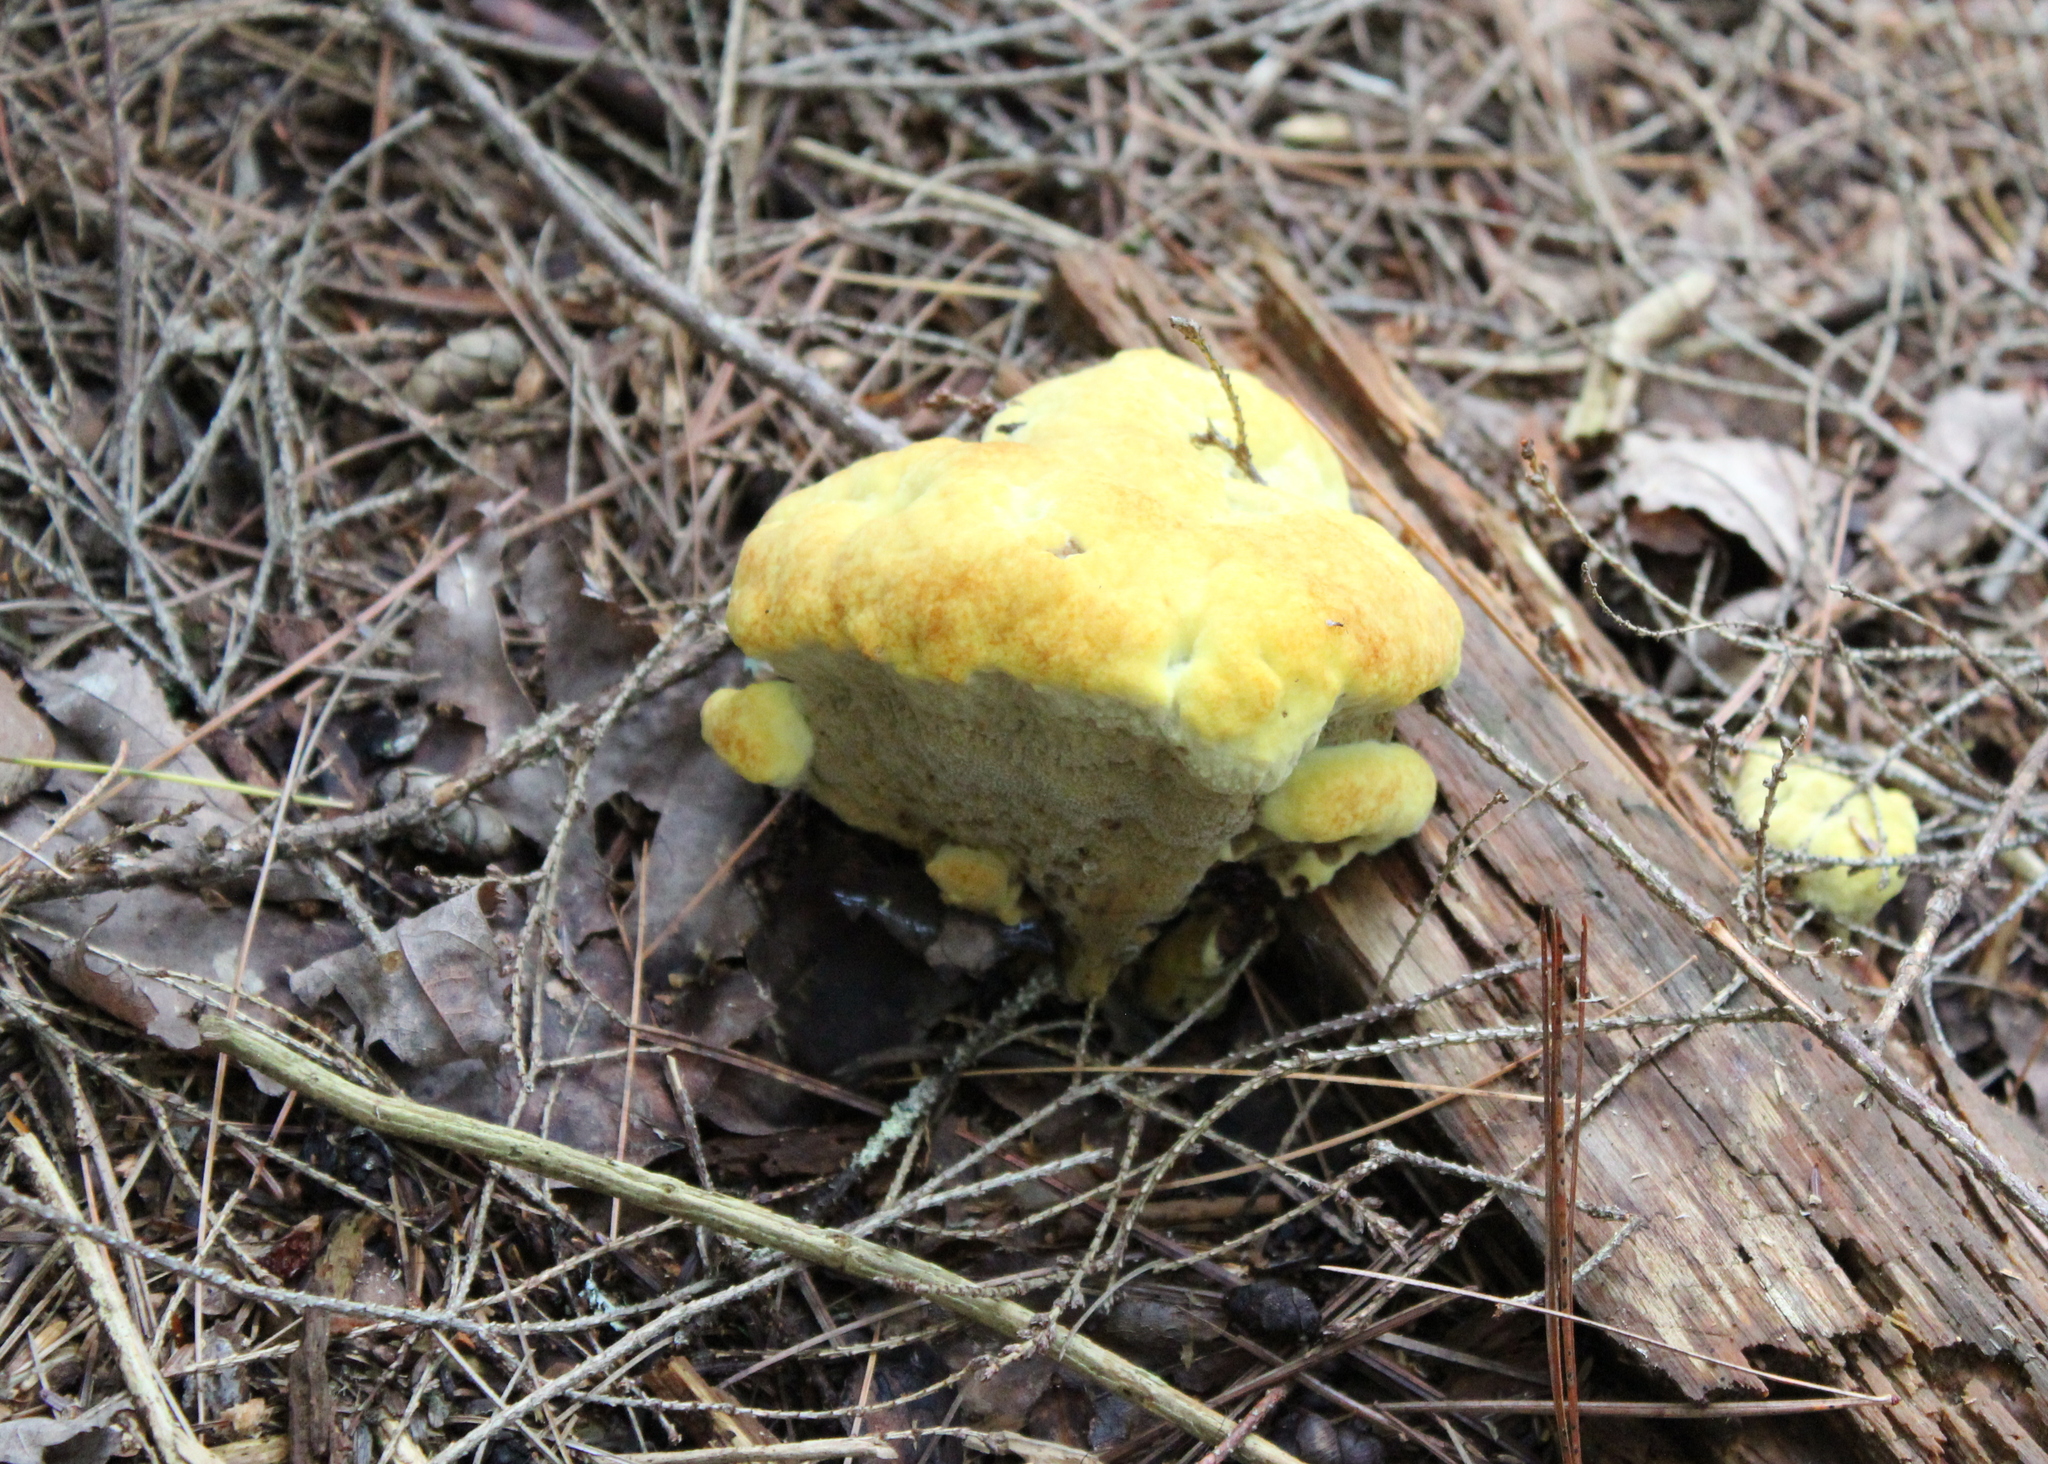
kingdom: Fungi
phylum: Basidiomycota
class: Agaricomycetes
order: Polyporales
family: Laetiporaceae
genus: Phaeolus
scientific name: Phaeolus schweinitzii
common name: Dyer's mazegill
